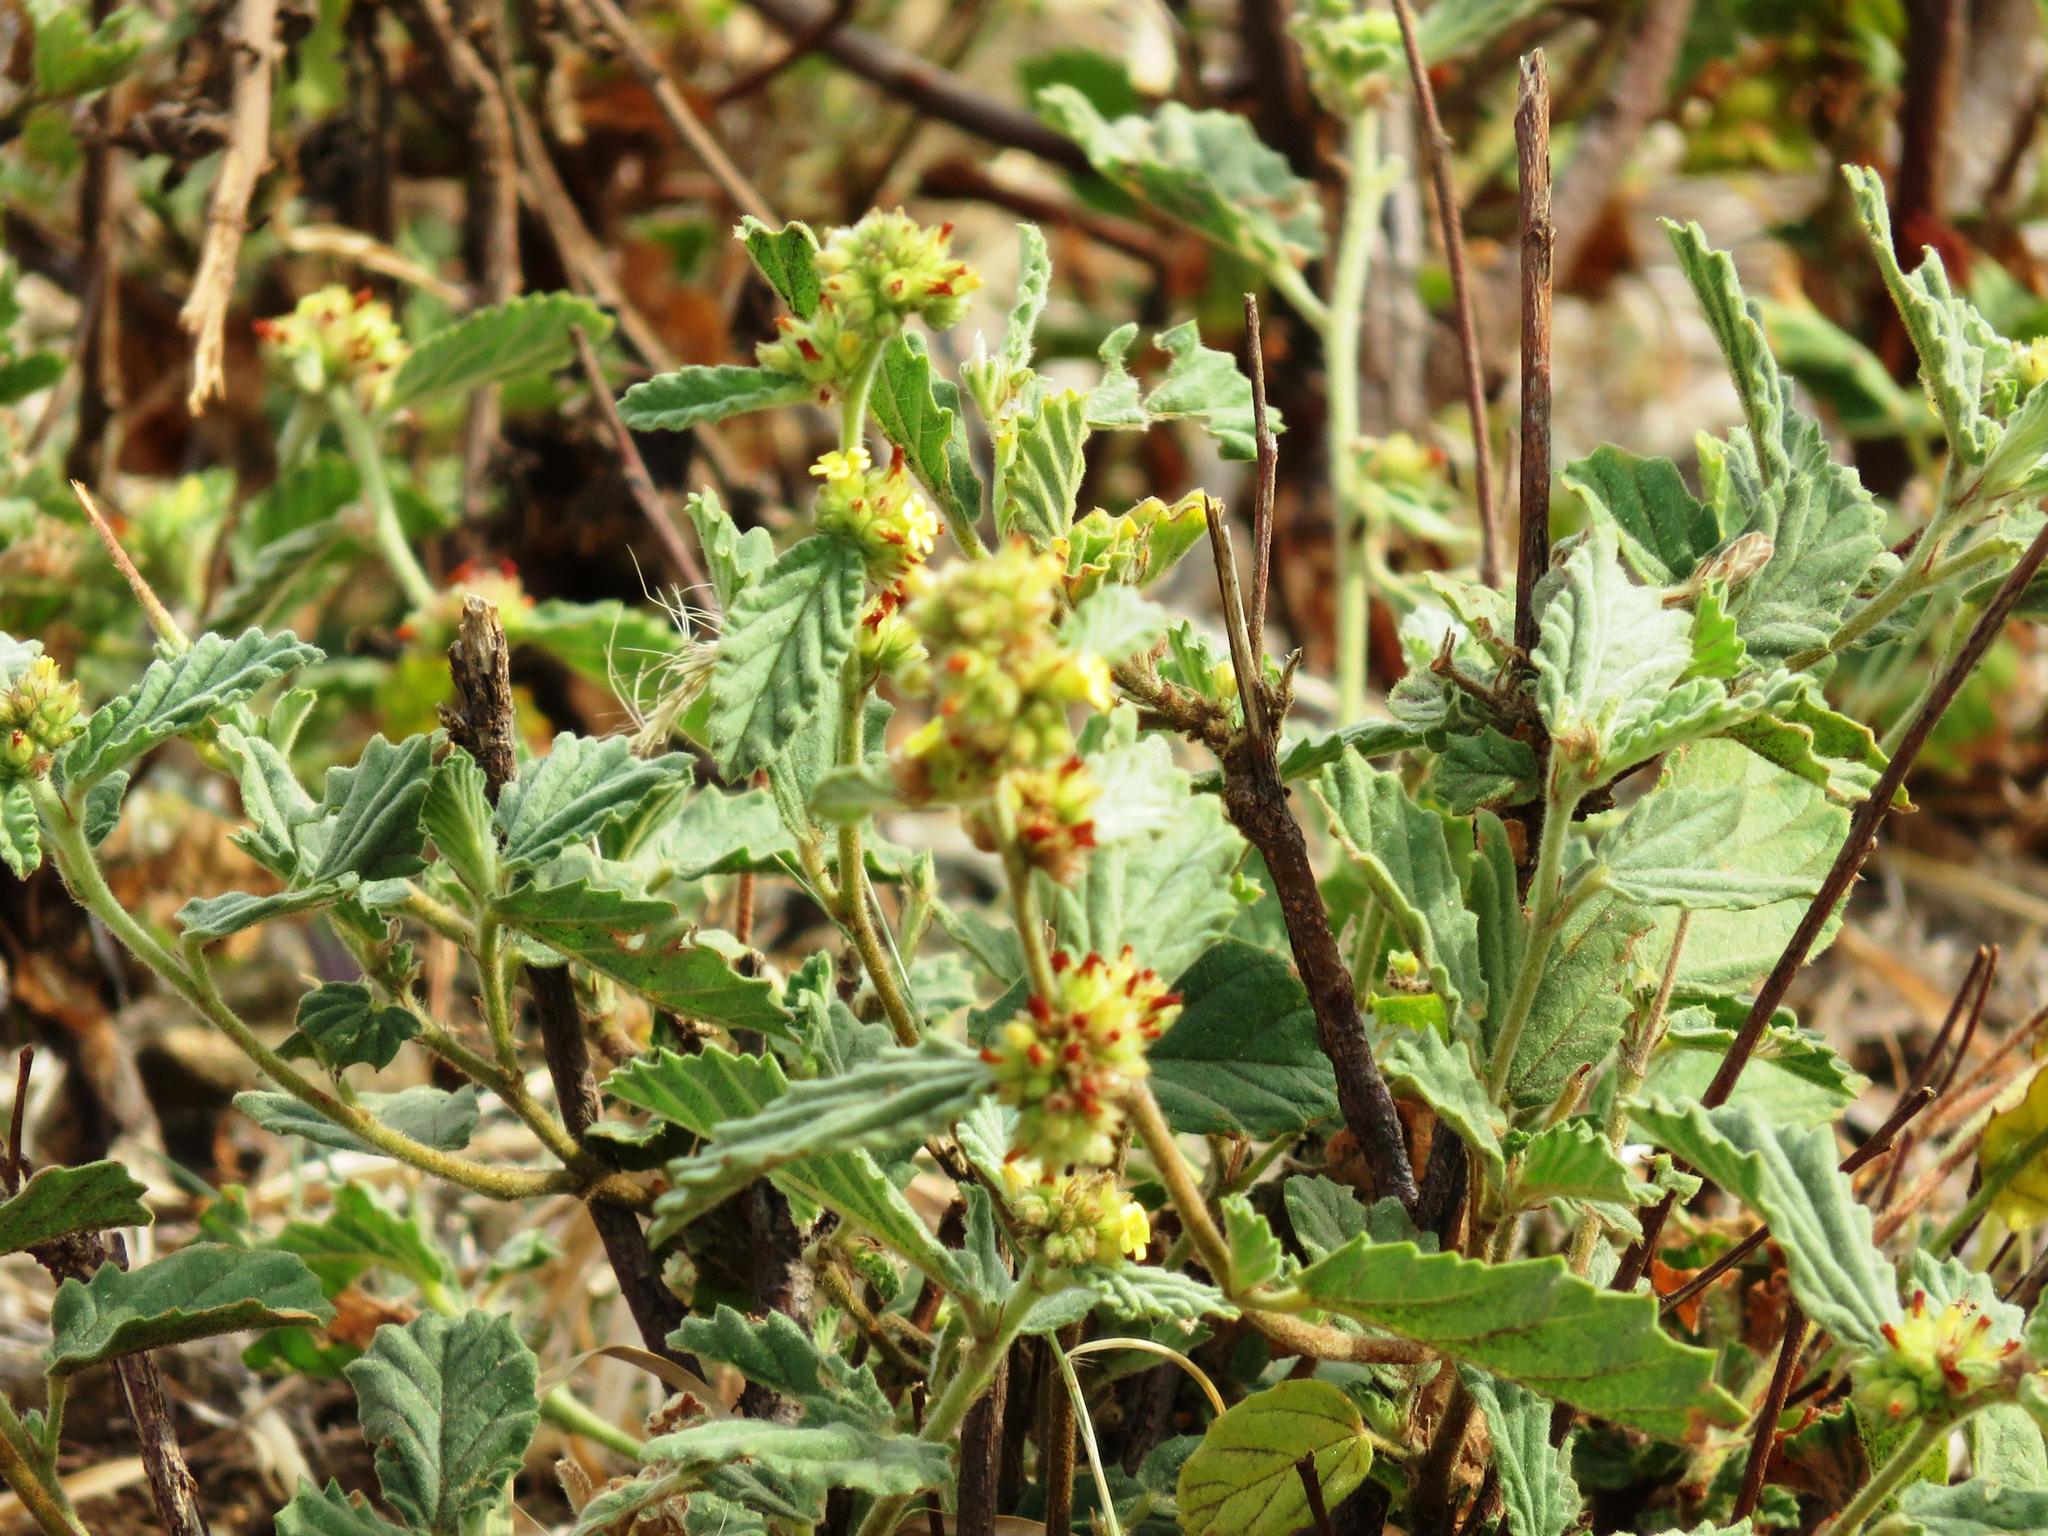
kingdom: Plantae
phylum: Tracheophyta
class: Magnoliopsida
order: Malvales
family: Malvaceae
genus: Waltheria
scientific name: Waltheria indica
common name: Leather-coat
